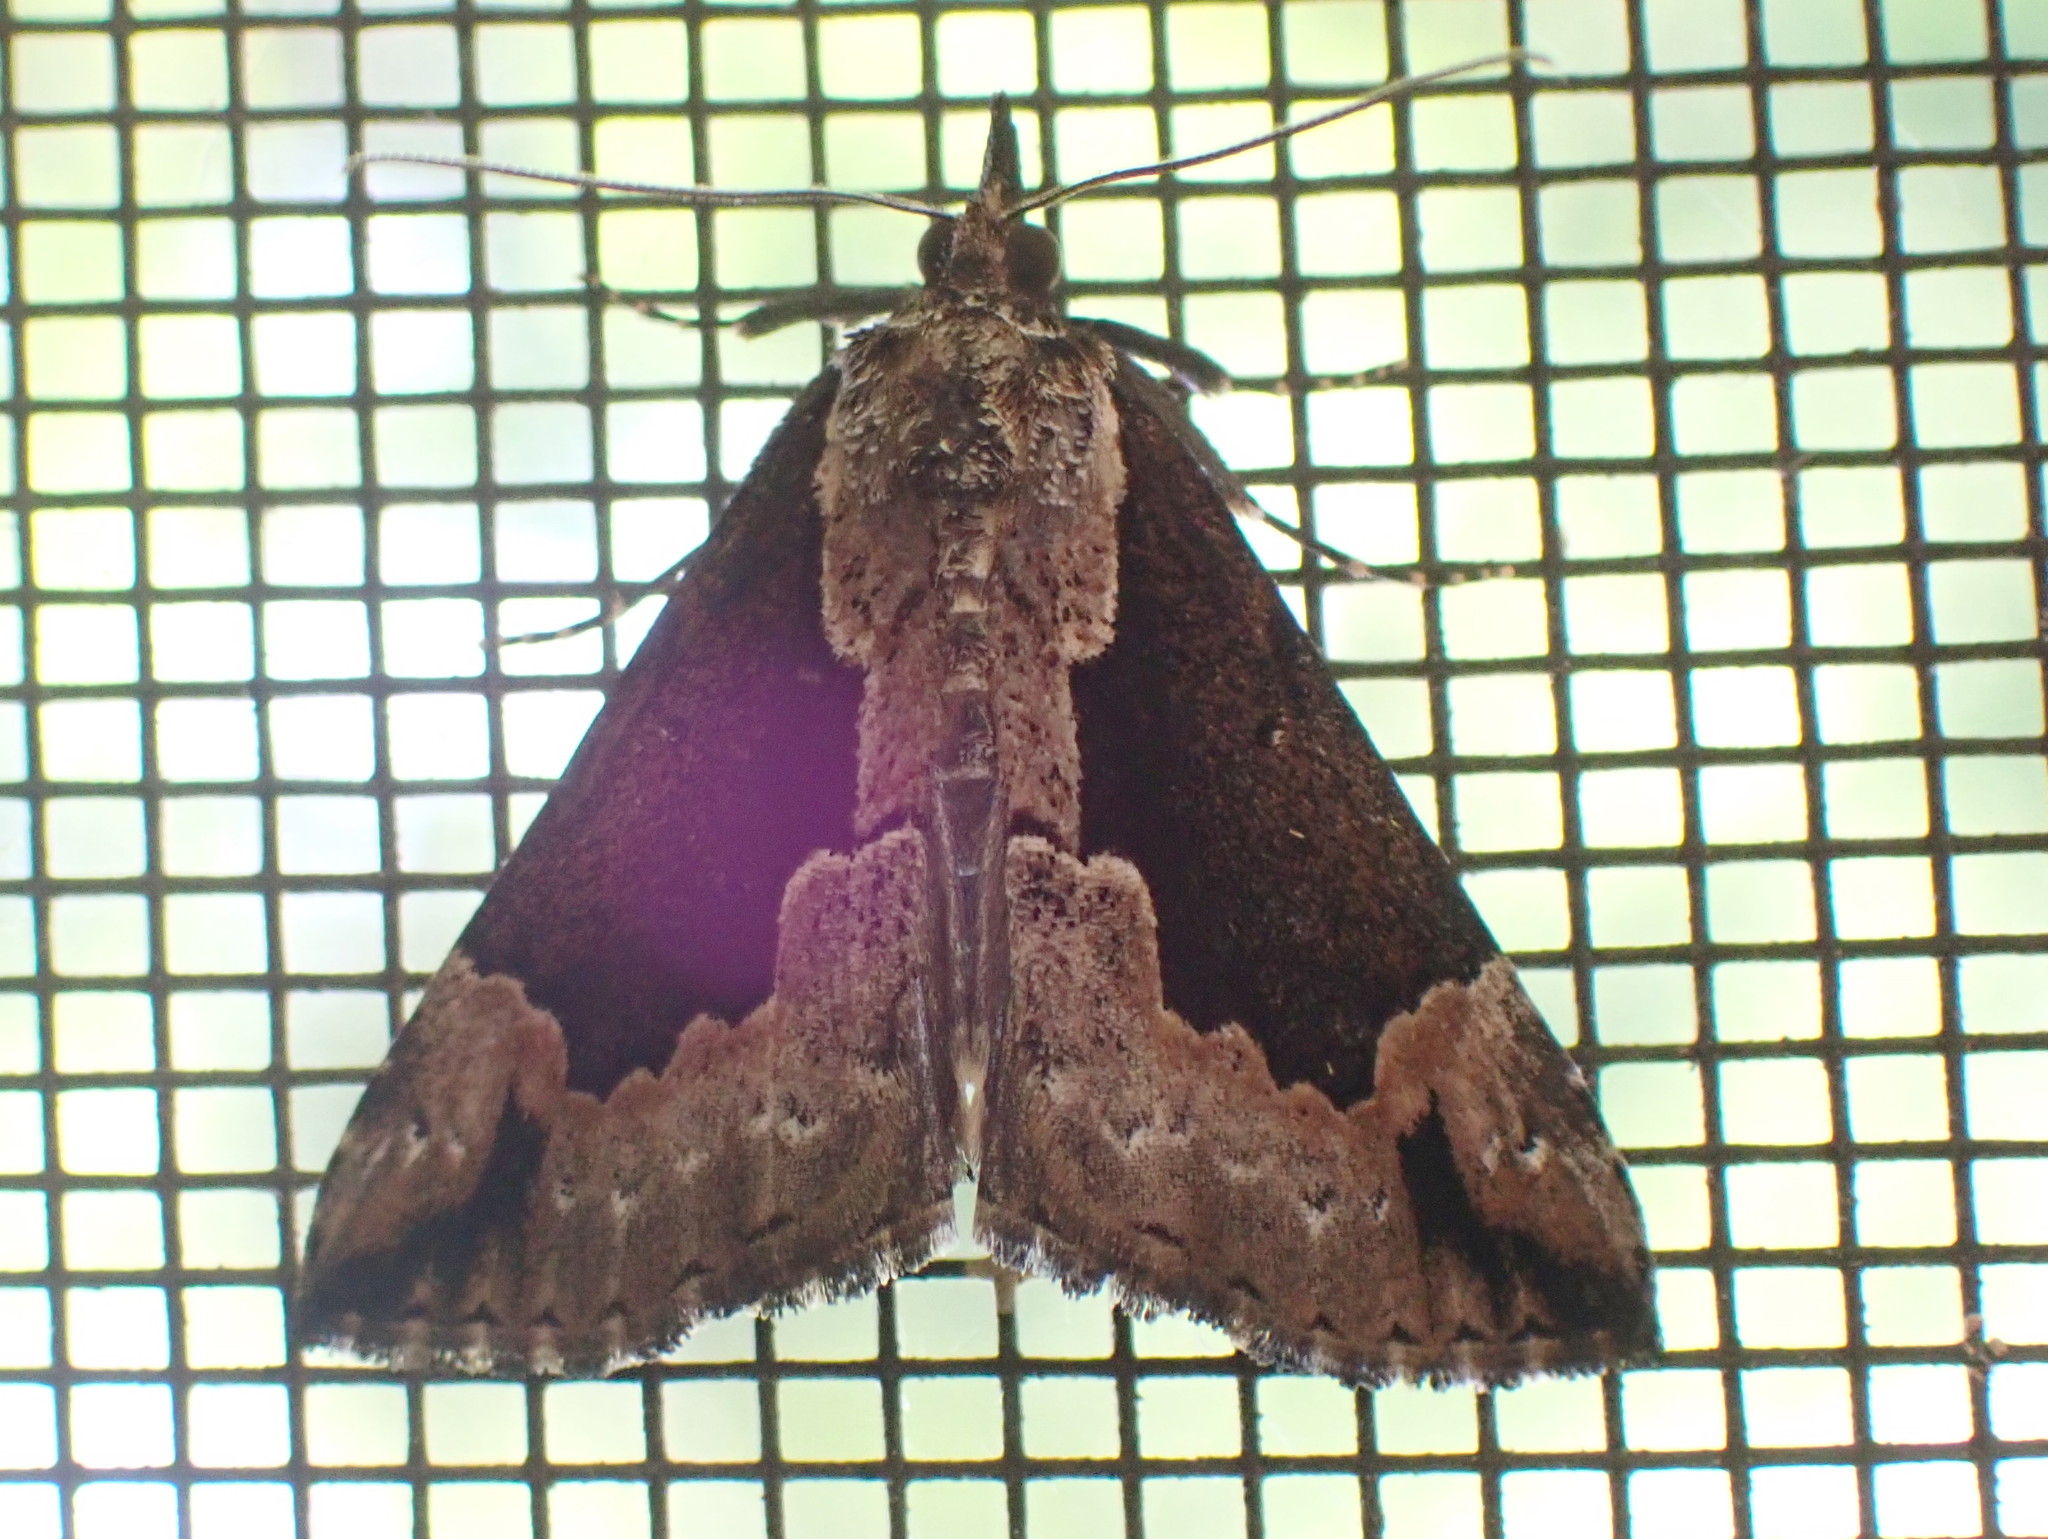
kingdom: Animalia
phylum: Arthropoda
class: Insecta
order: Lepidoptera
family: Erebidae
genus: Hypena
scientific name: Hypena baltimoralis
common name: Baltimore snout
